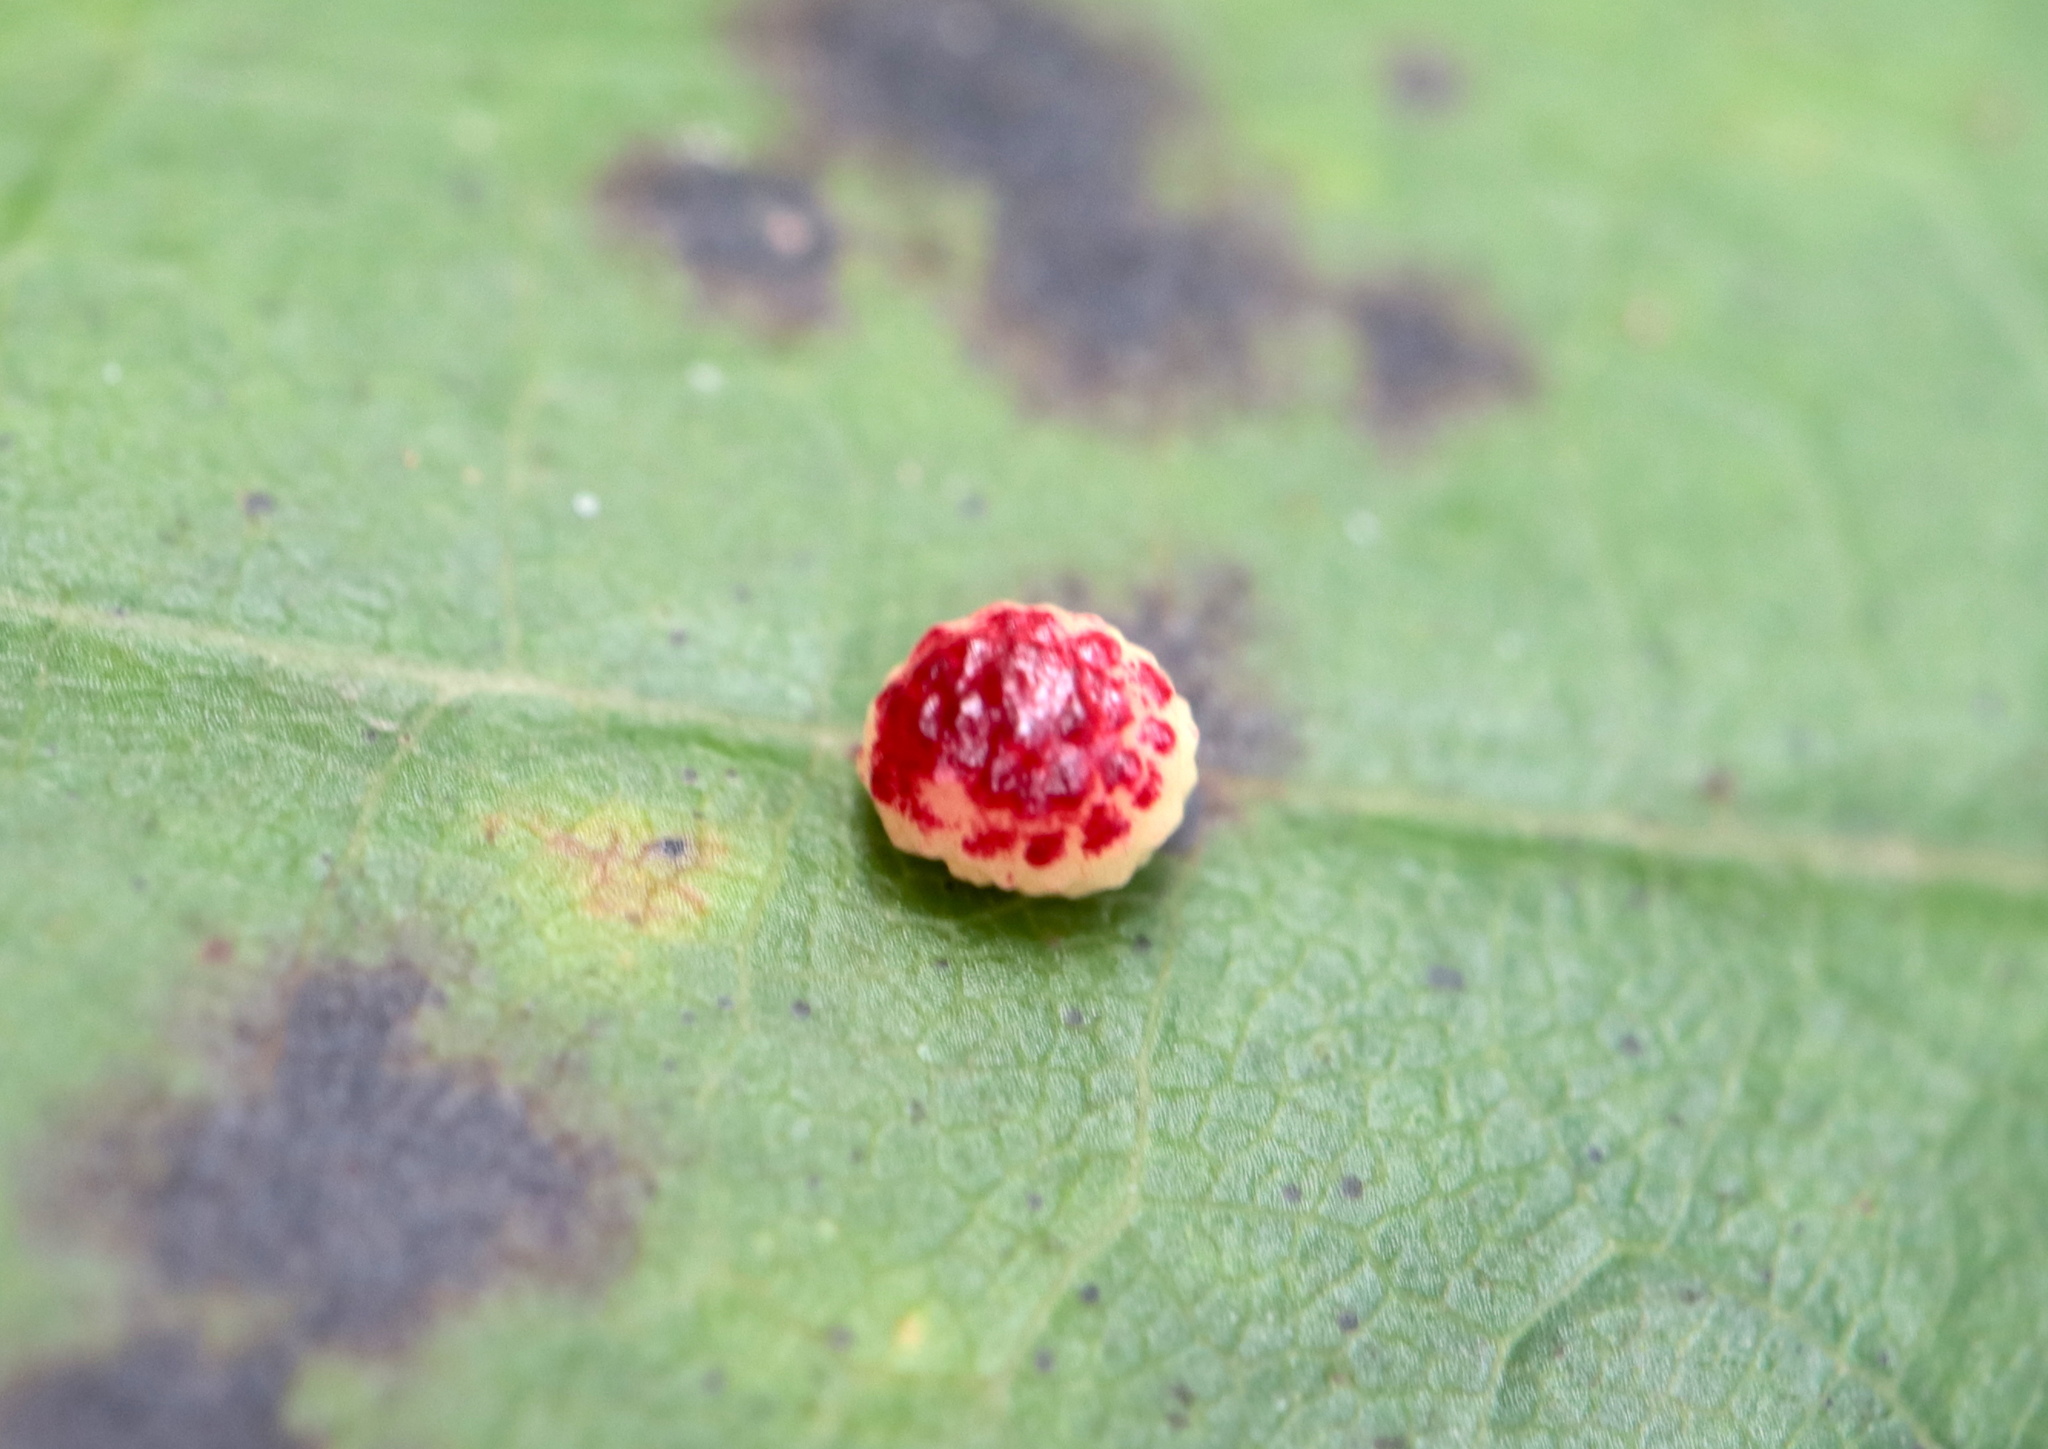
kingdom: Animalia
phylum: Arthropoda
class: Insecta
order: Hymenoptera
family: Cynipidae
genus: Zopheroteras
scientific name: Zopheroteras
